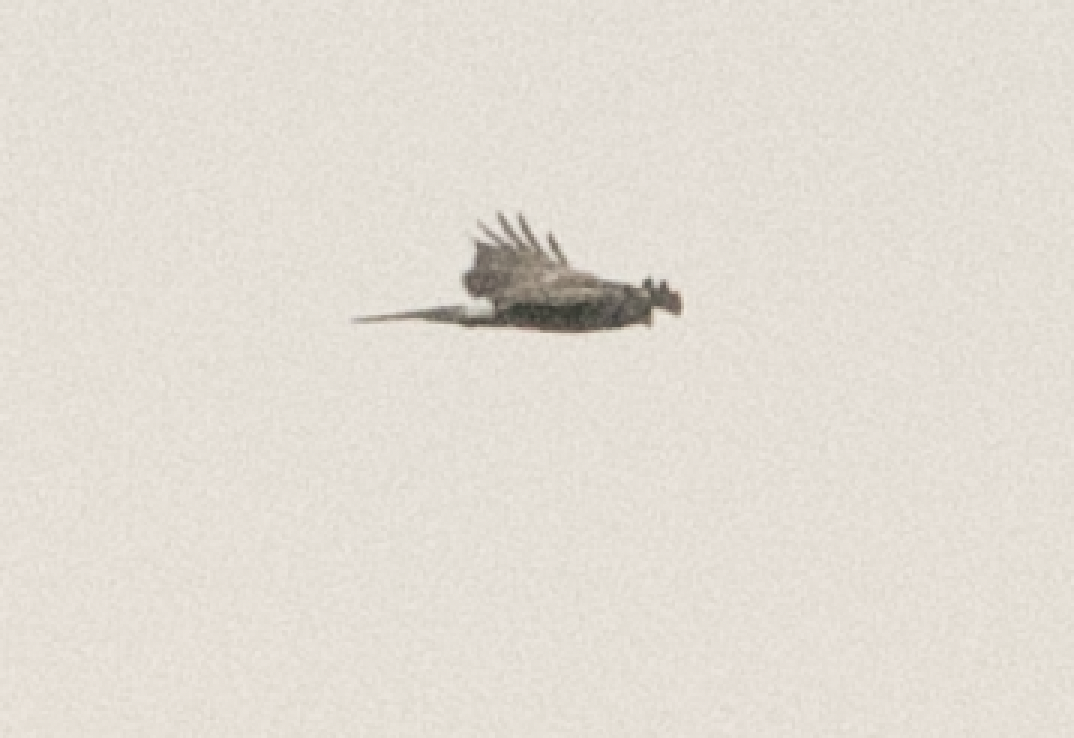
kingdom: Animalia
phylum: Chordata
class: Aves
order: Accipitriformes
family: Accipitridae
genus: Circus
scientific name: Circus cyaneus
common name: Hen harrier
